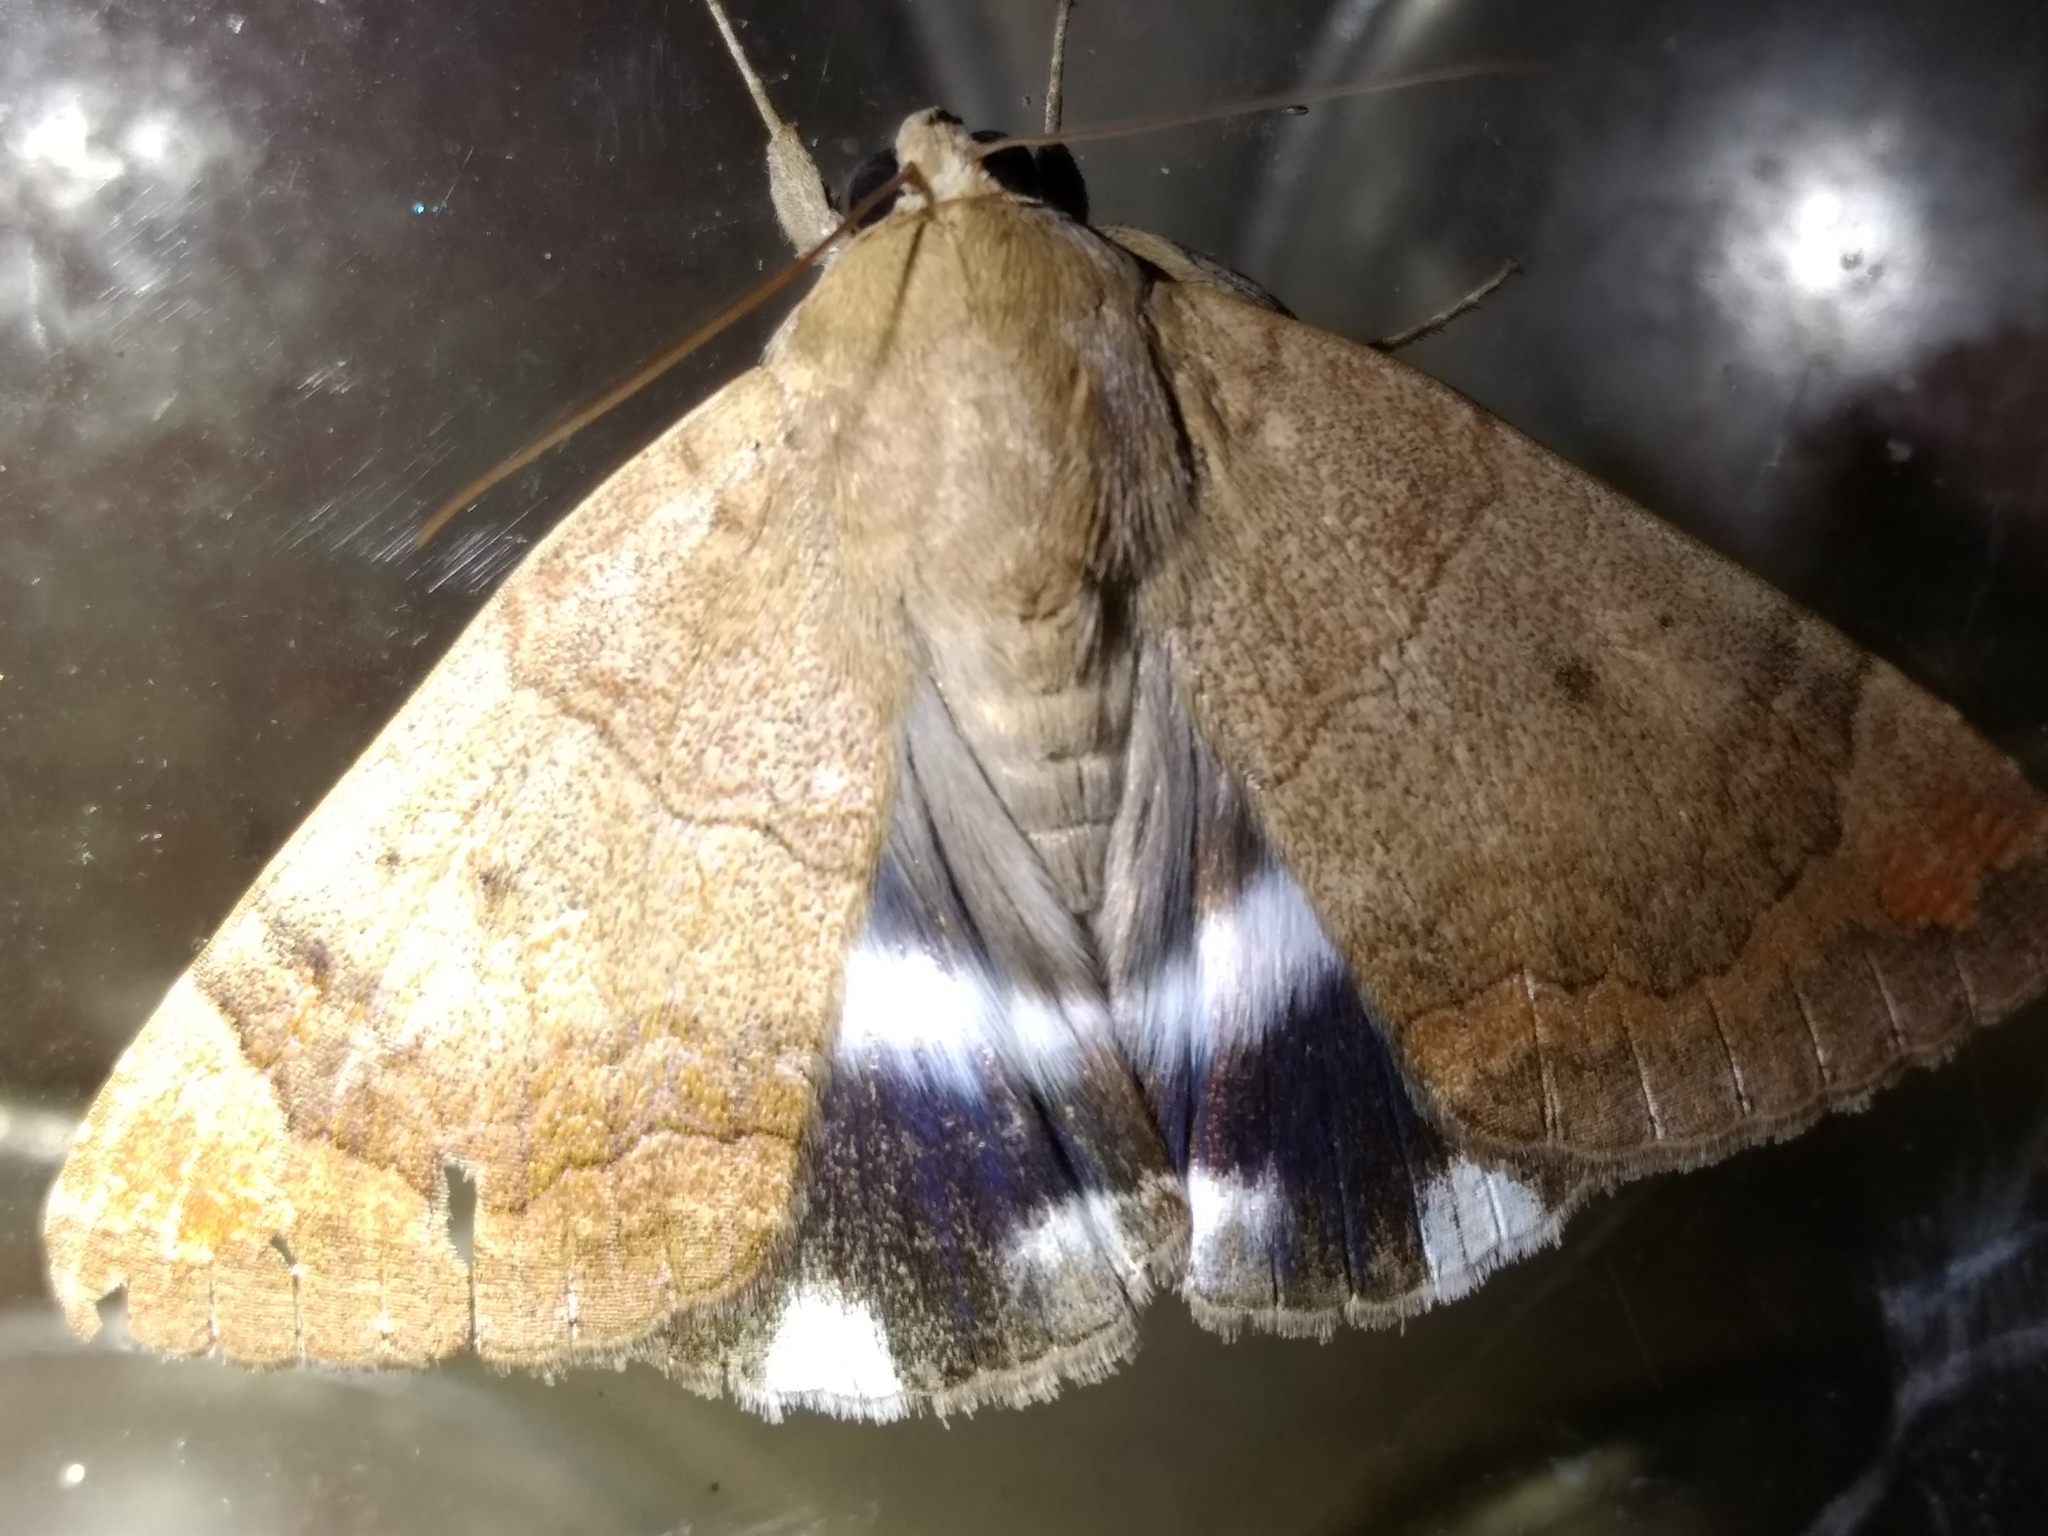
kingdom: Animalia
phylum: Arthropoda
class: Insecta
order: Lepidoptera
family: Erebidae
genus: Achaea
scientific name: Achaea janata
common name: Croton caterpillar
